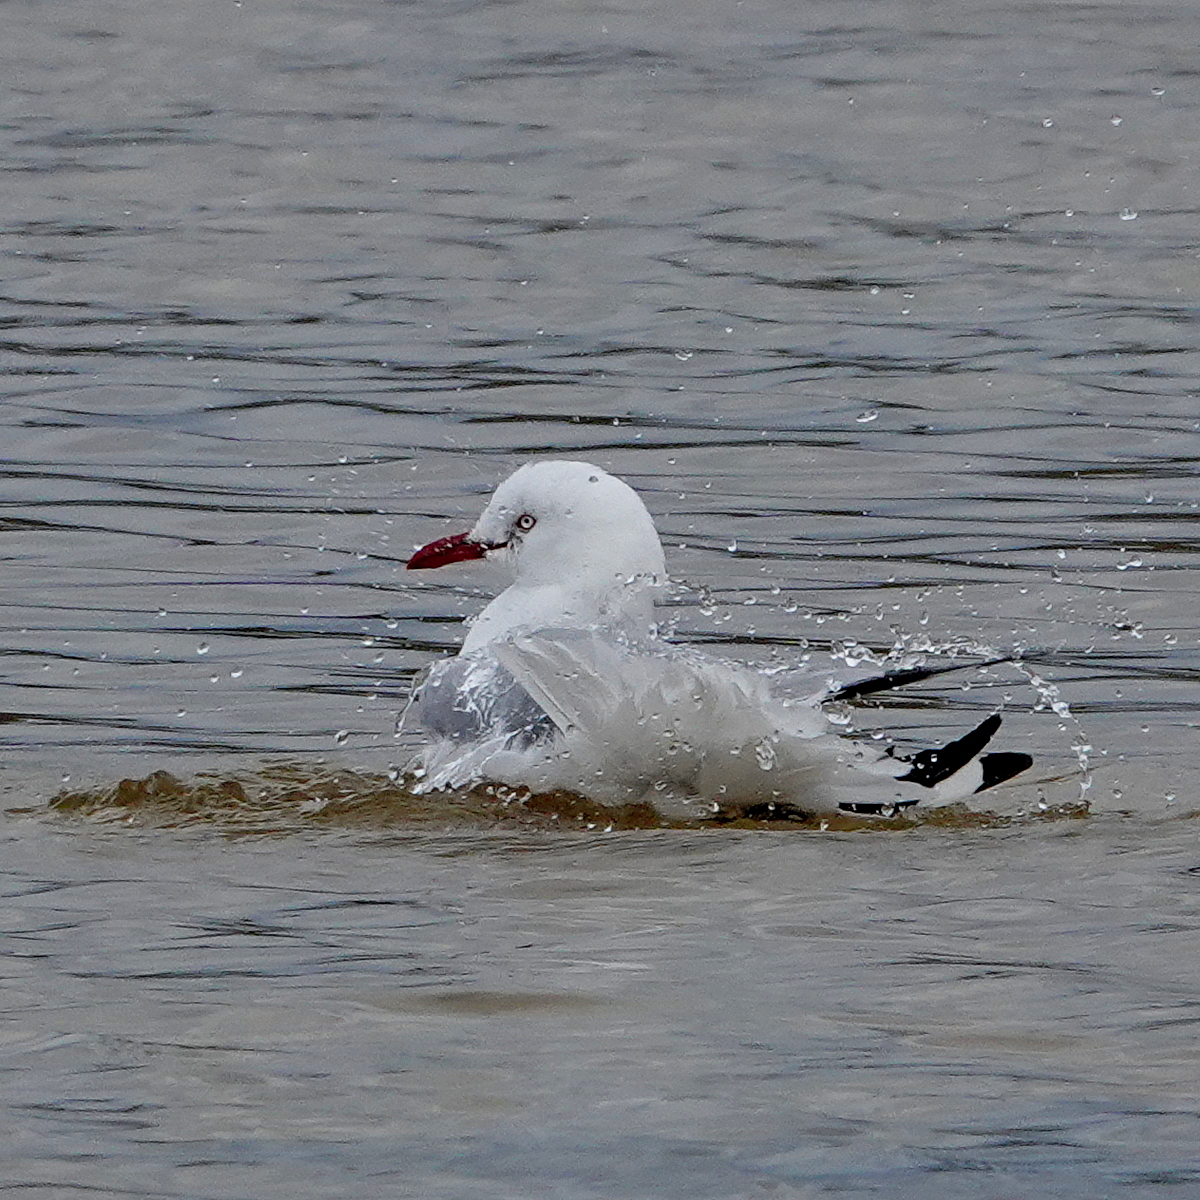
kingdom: Animalia
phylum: Chordata
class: Aves
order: Charadriiformes
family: Laridae
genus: Chroicocephalus
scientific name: Chroicocephalus novaehollandiae
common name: Silver gull
